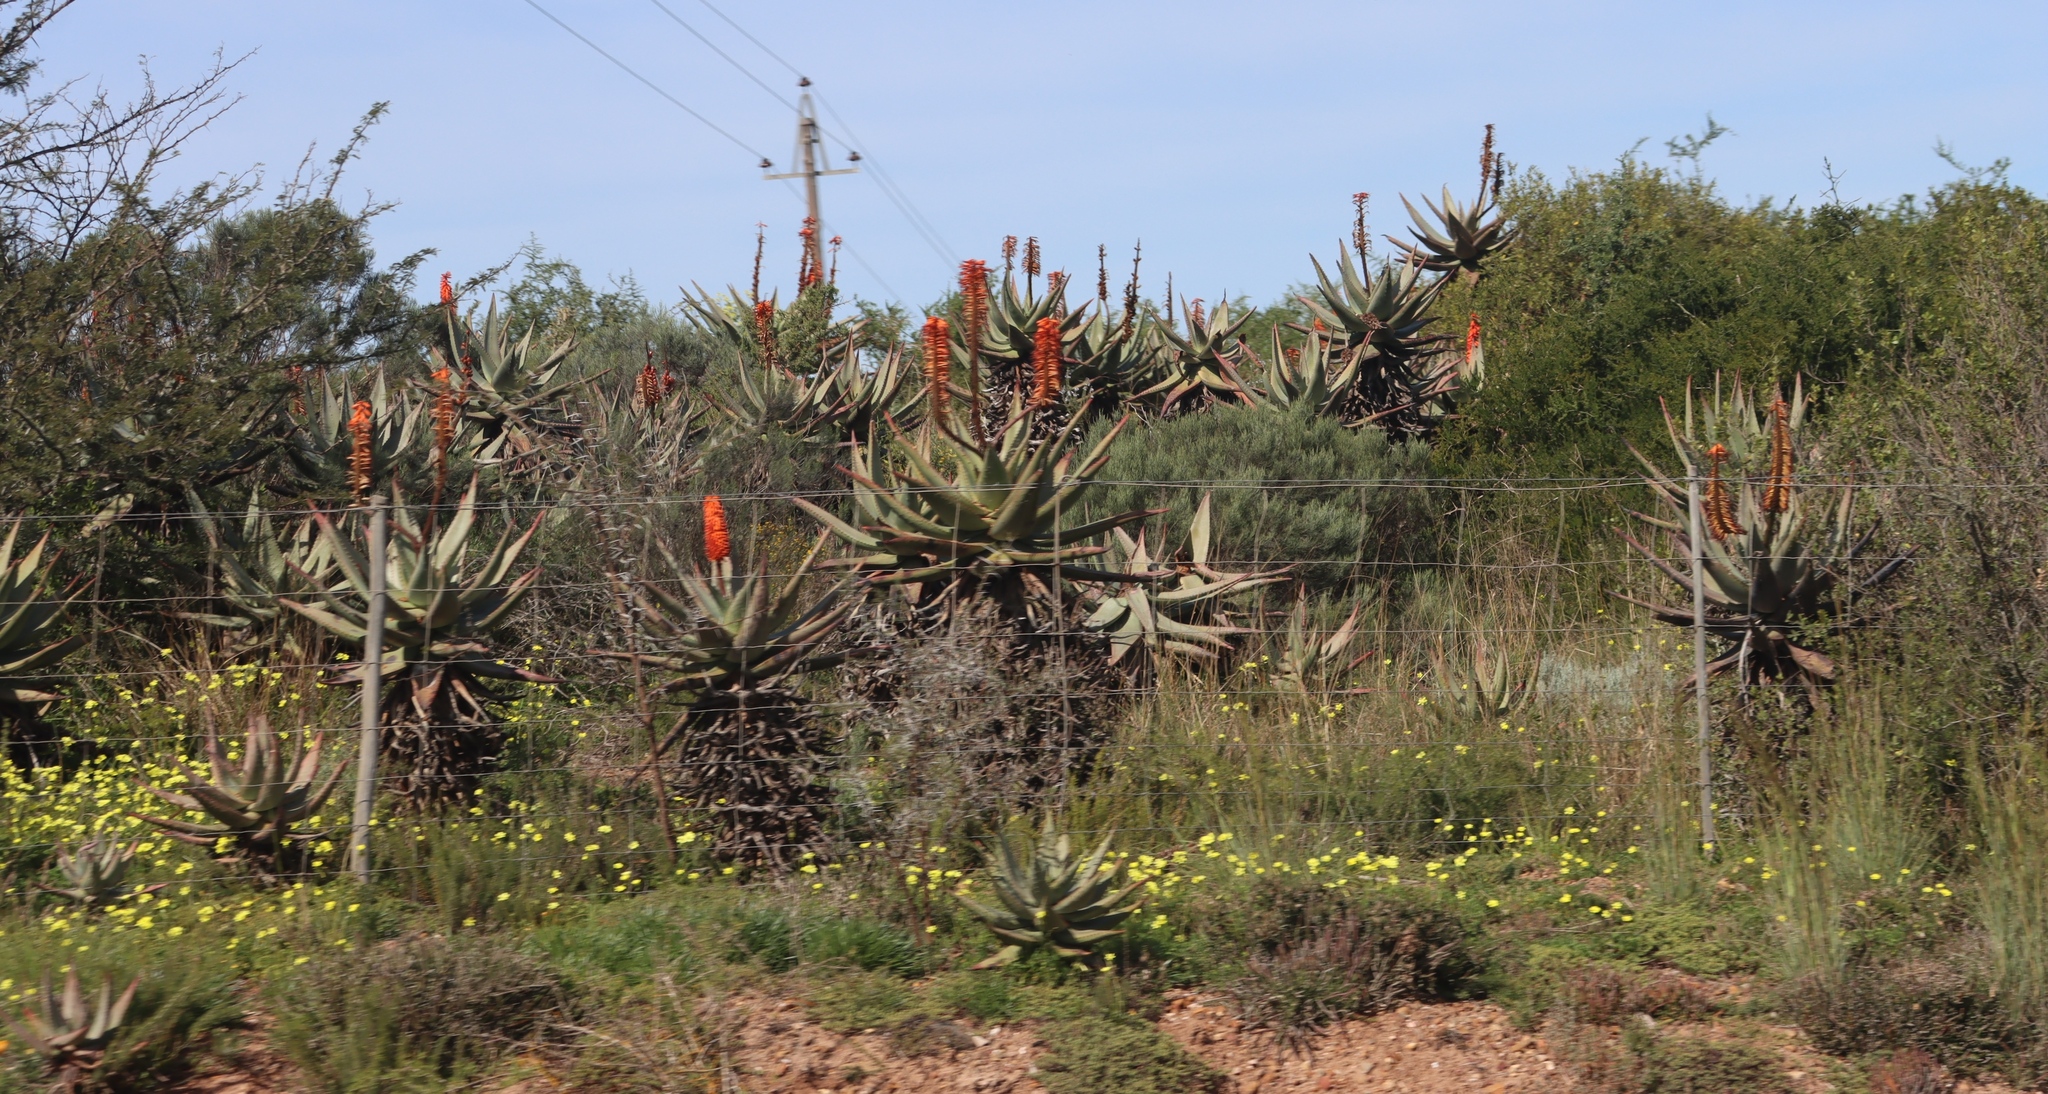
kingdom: Plantae
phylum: Tracheophyta
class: Liliopsida
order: Asparagales
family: Asphodelaceae
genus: Aloe
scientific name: Aloe ferox
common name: Bitter aloe
